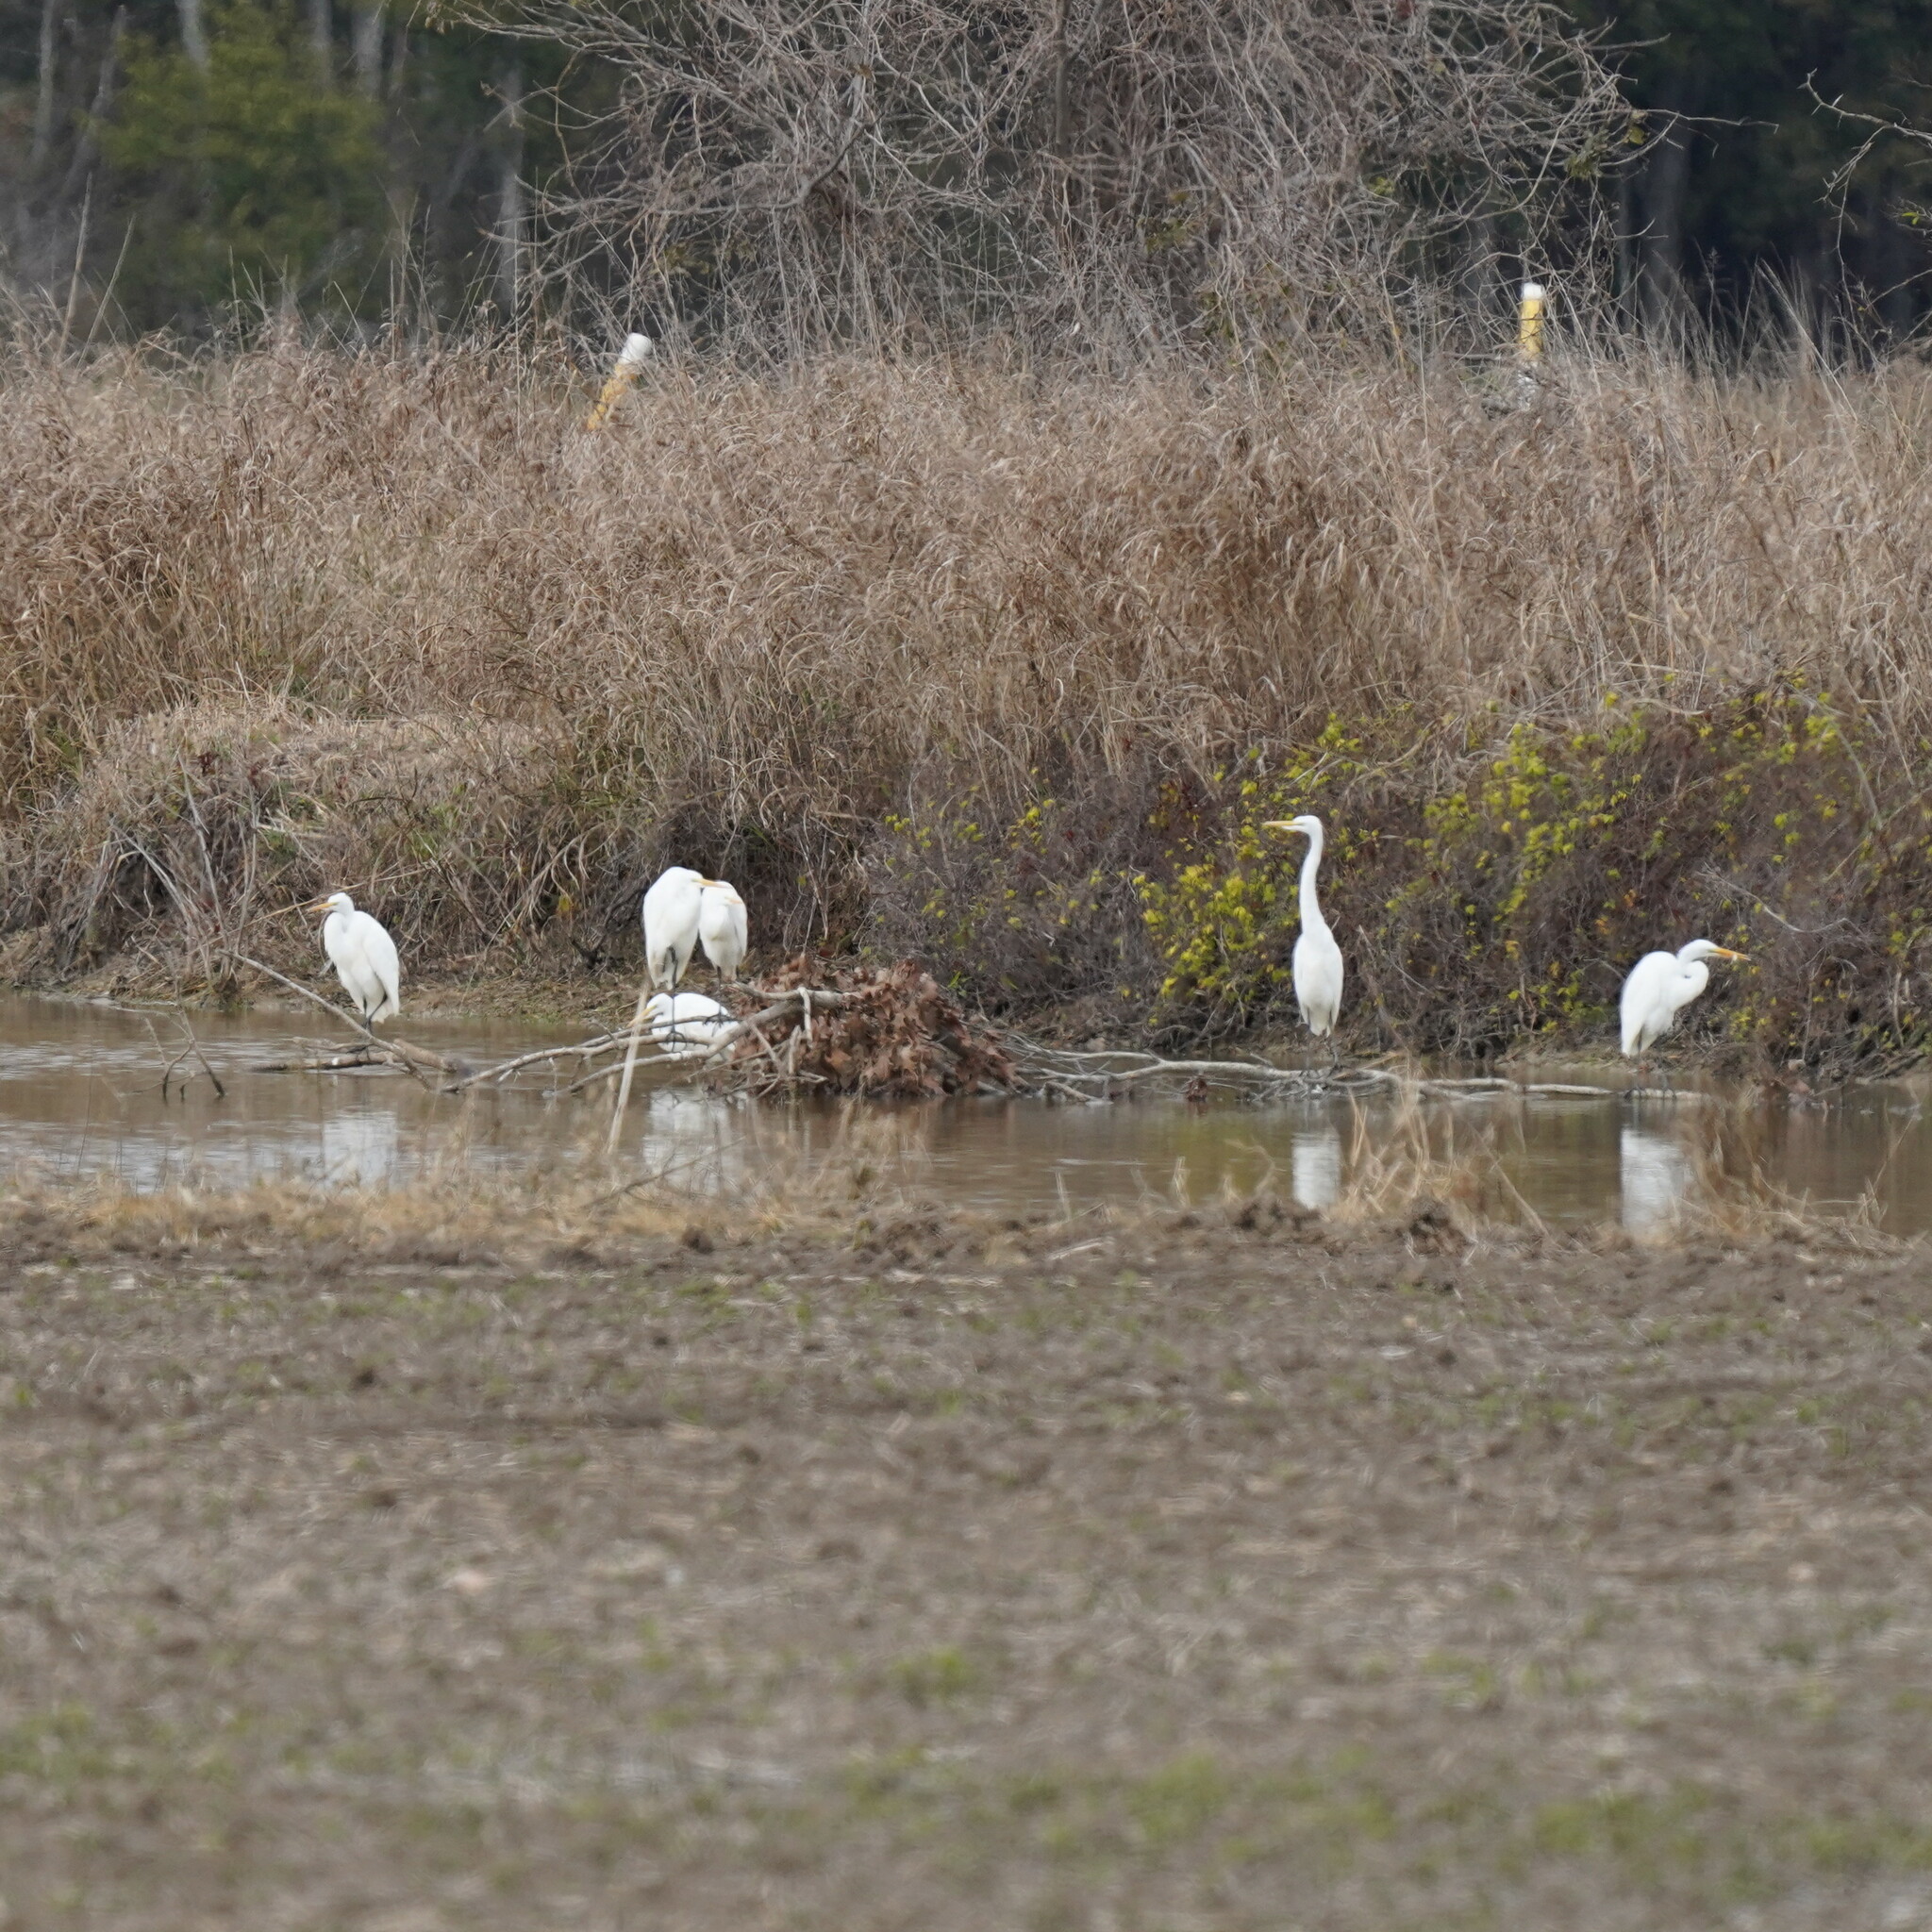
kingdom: Animalia
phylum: Chordata
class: Aves
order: Pelecaniformes
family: Ardeidae
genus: Ardea
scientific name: Ardea alba
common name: Great egret
